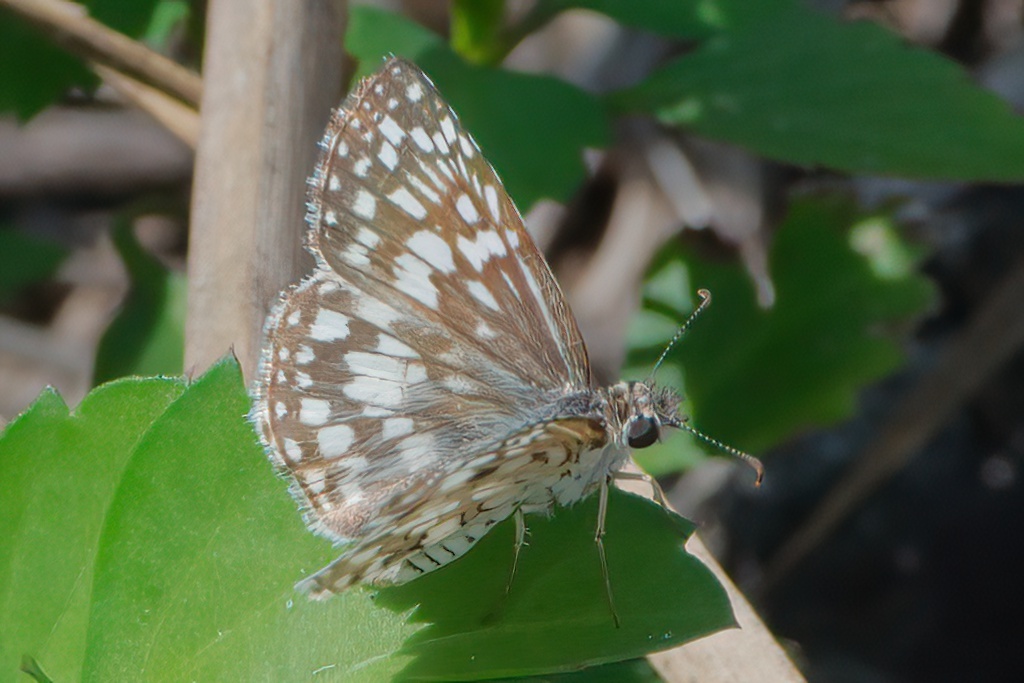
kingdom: Animalia
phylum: Arthropoda
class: Insecta
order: Lepidoptera
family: Hesperiidae
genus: Pyrgus
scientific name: Pyrgus oileus
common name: Tropical checkered-skipper
